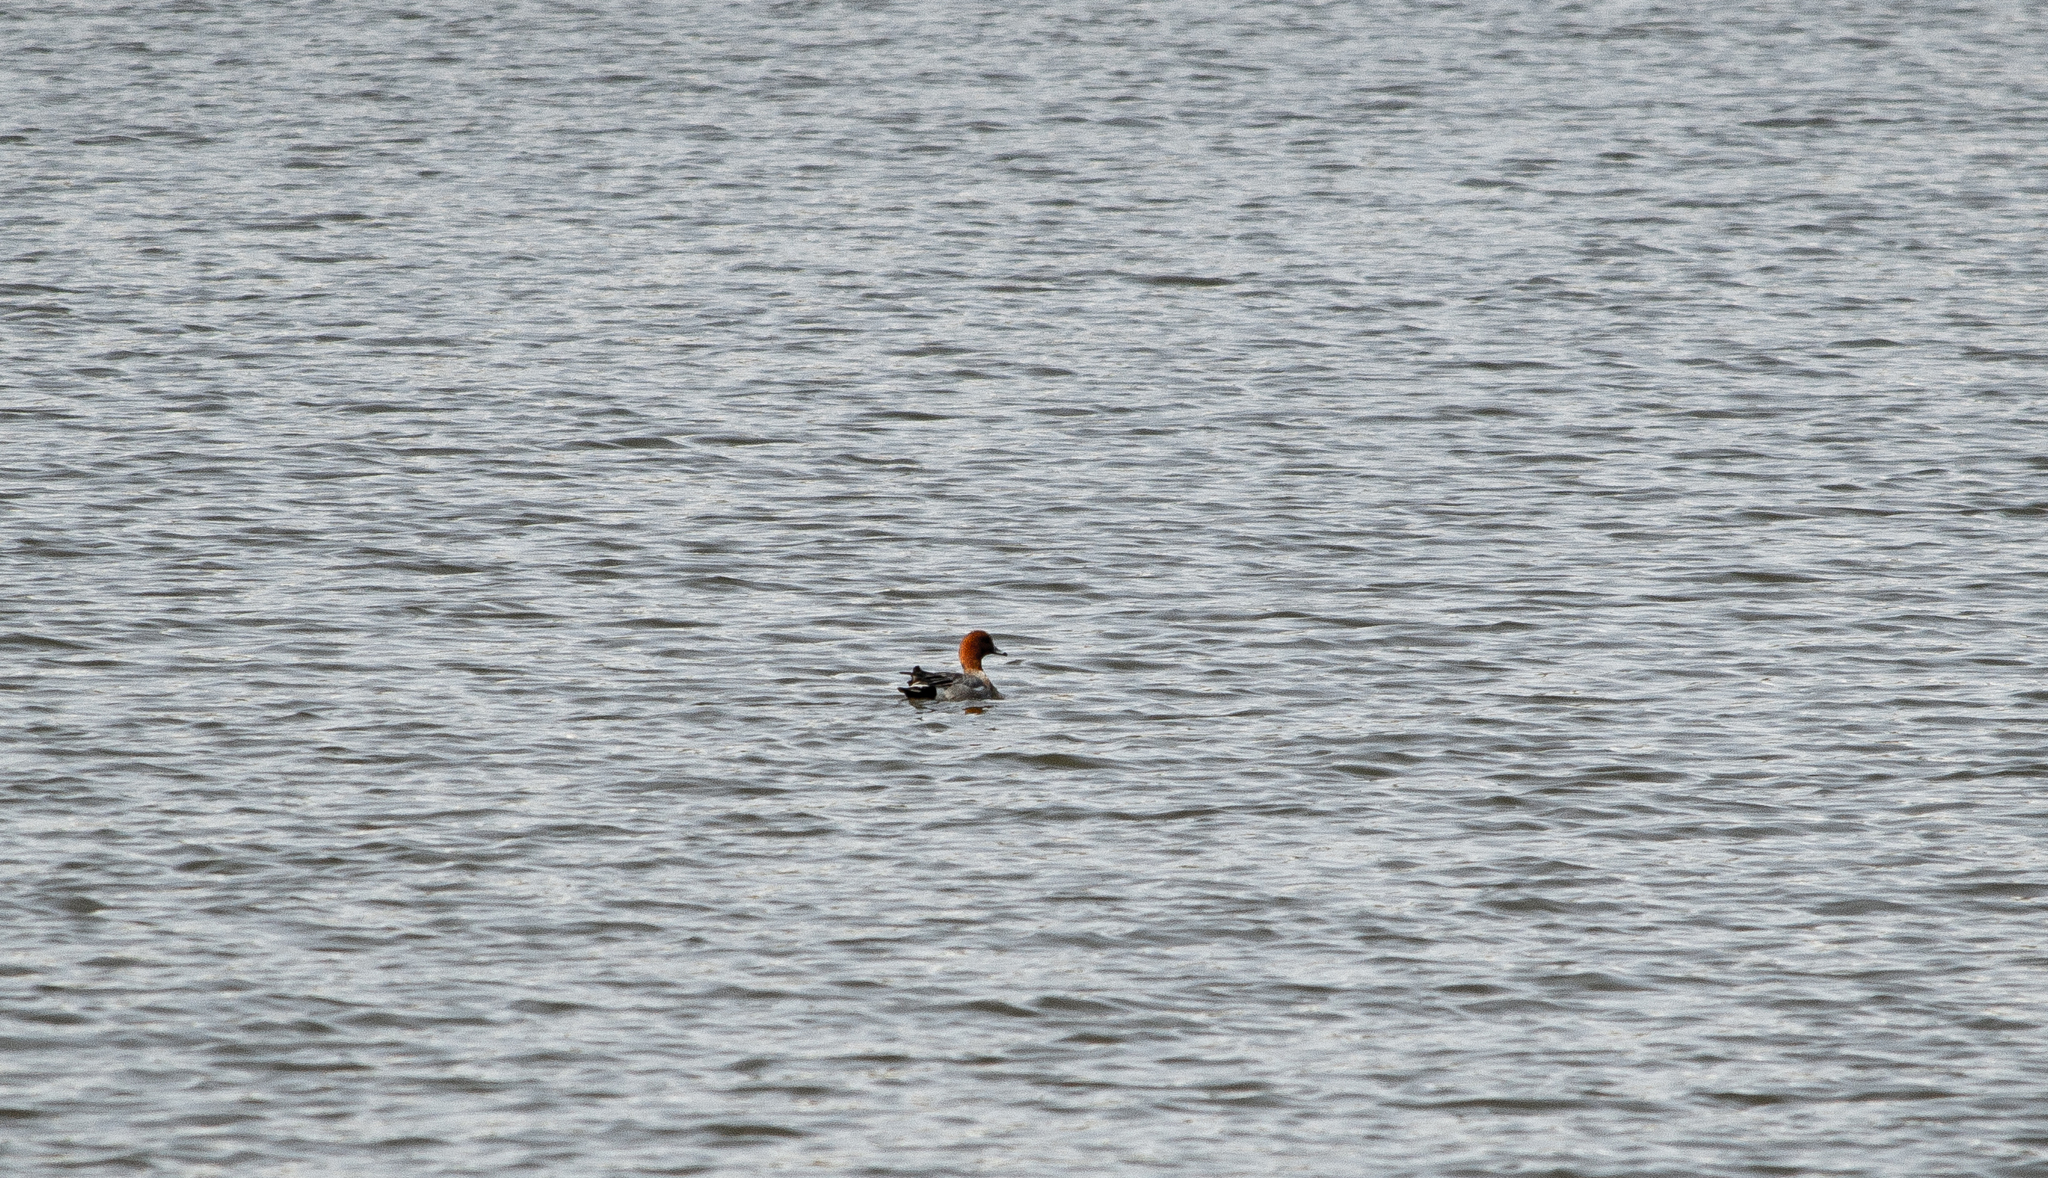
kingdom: Animalia
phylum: Chordata
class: Aves
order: Anseriformes
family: Anatidae
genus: Mareca
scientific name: Mareca penelope
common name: Eurasian wigeon
